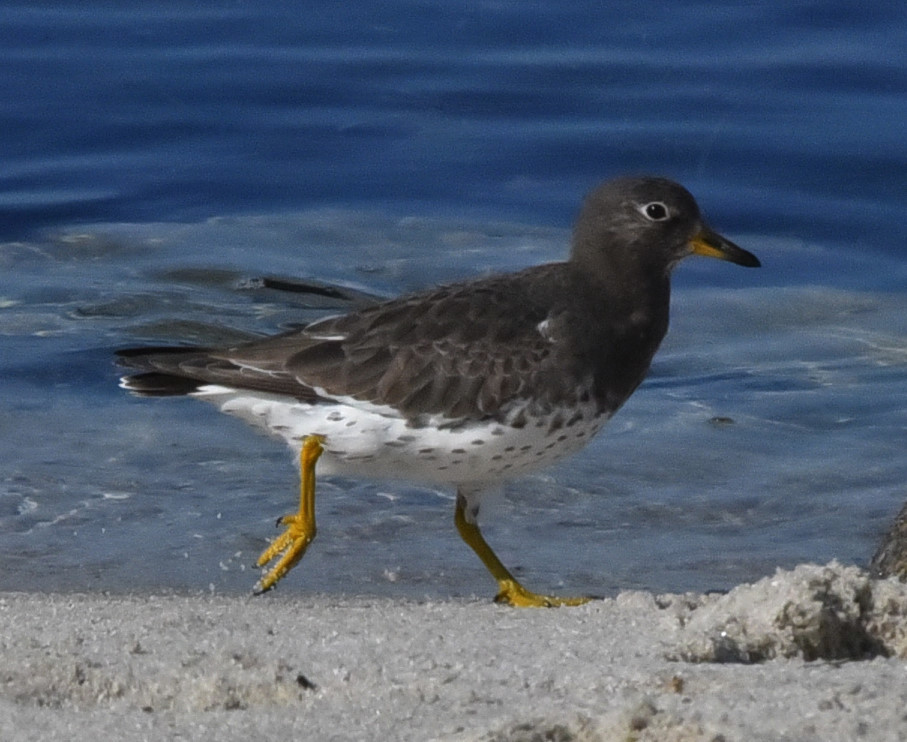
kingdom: Animalia
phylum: Chordata
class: Aves
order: Charadriiformes
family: Scolopacidae
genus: Calidris
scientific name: Calidris virgata
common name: Surfbird
